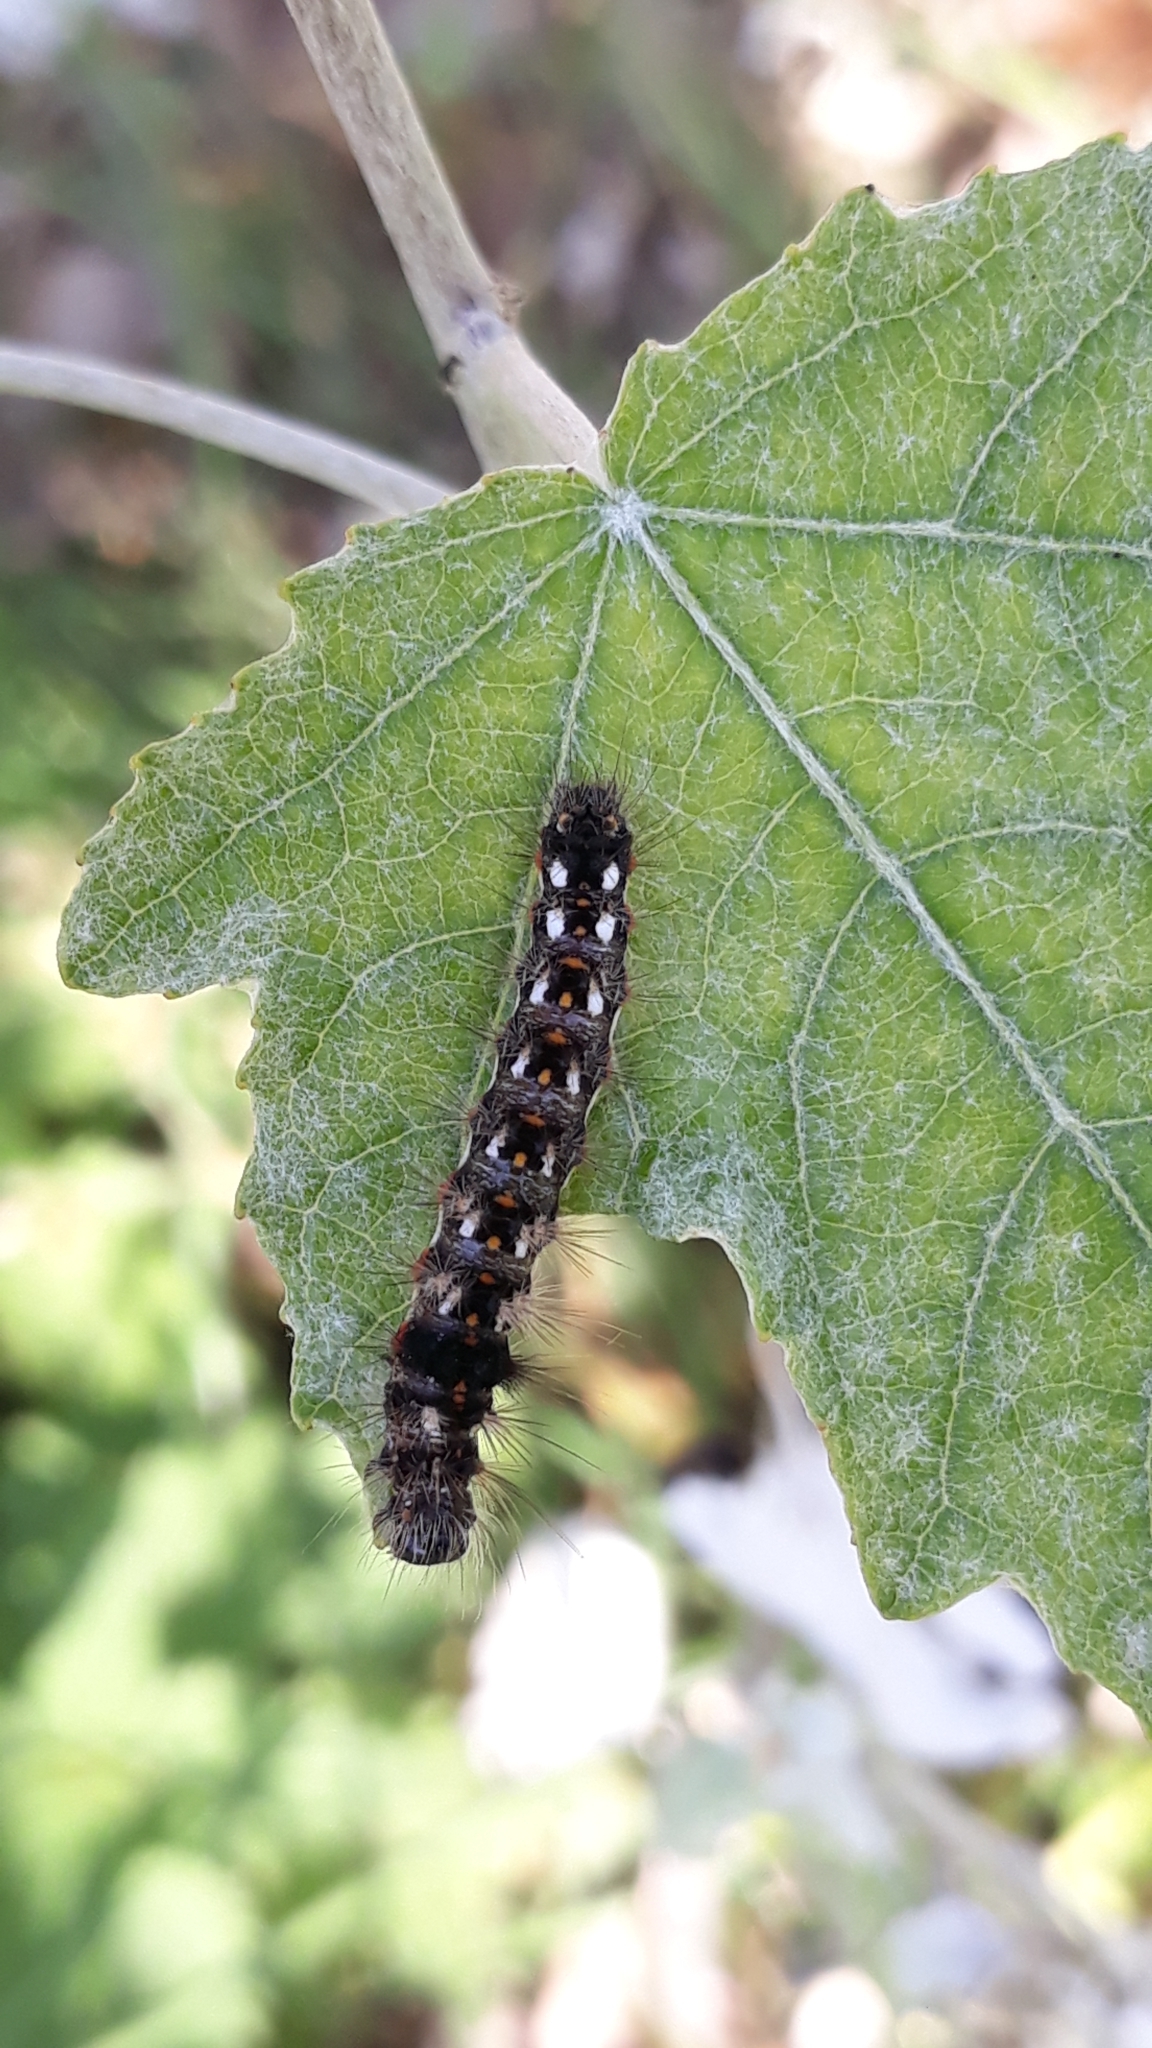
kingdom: Animalia
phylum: Arthropoda
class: Insecta
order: Lepidoptera
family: Noctuidae
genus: Acronicta
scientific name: Acronicta rumicis
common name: Knot grass
